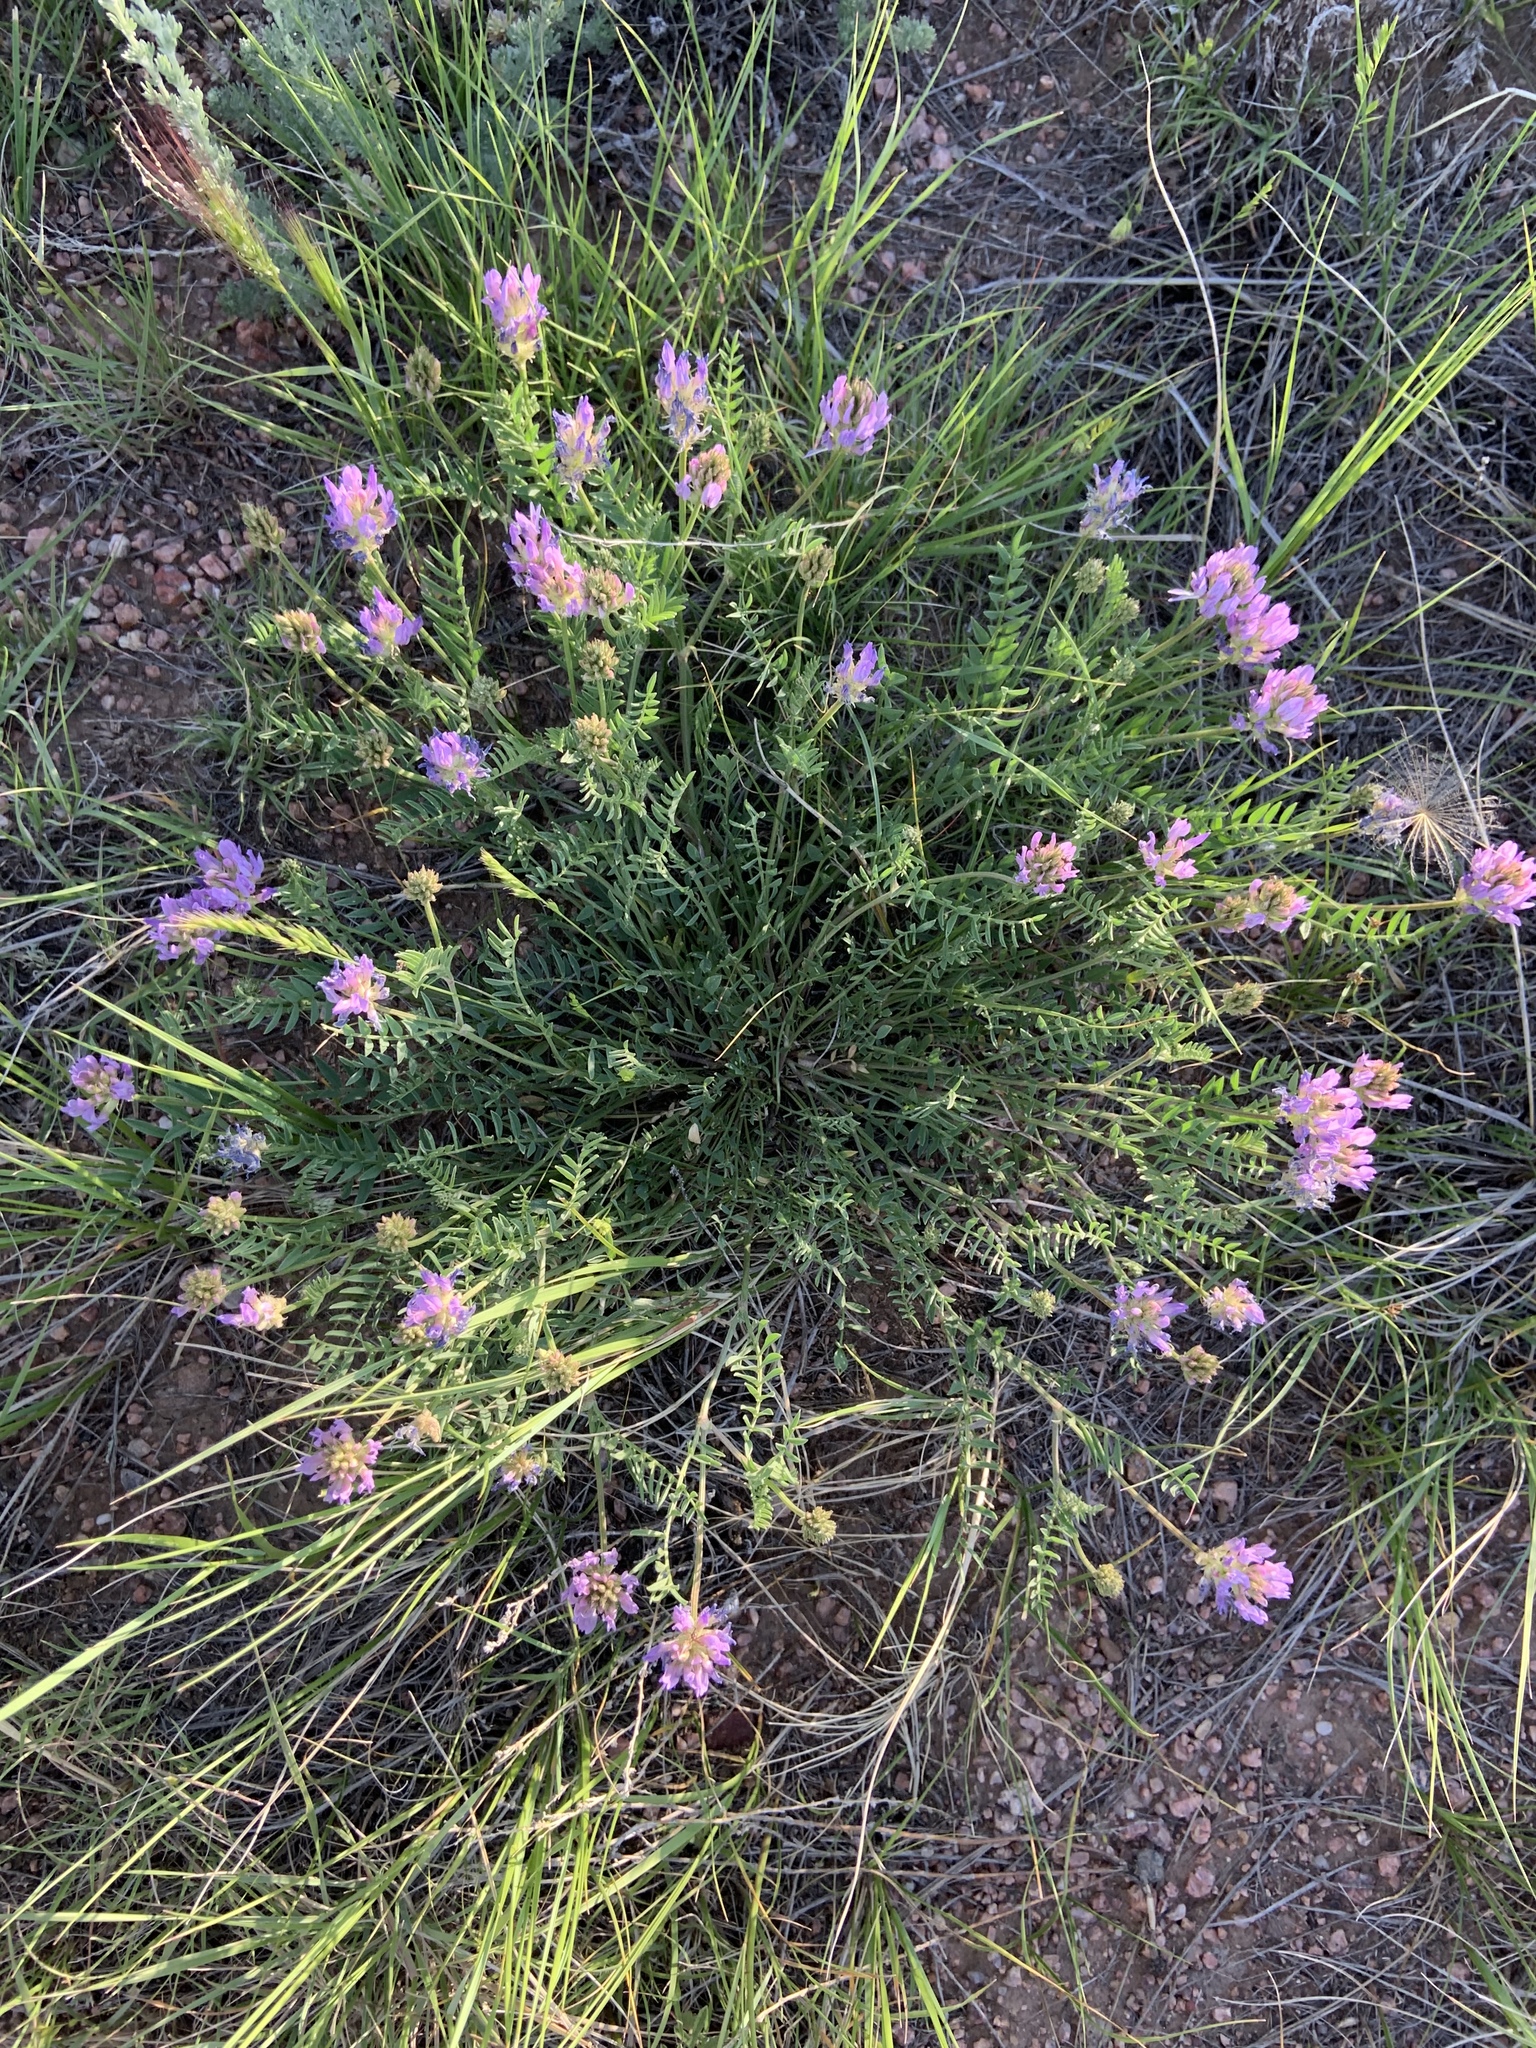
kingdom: Plantae
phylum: Tracheophyta
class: Magnoliopsida
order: Fabales
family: Fabaceae
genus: Astragalus
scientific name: Astragalus laxmannii
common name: Laxmann's milk-vetch
